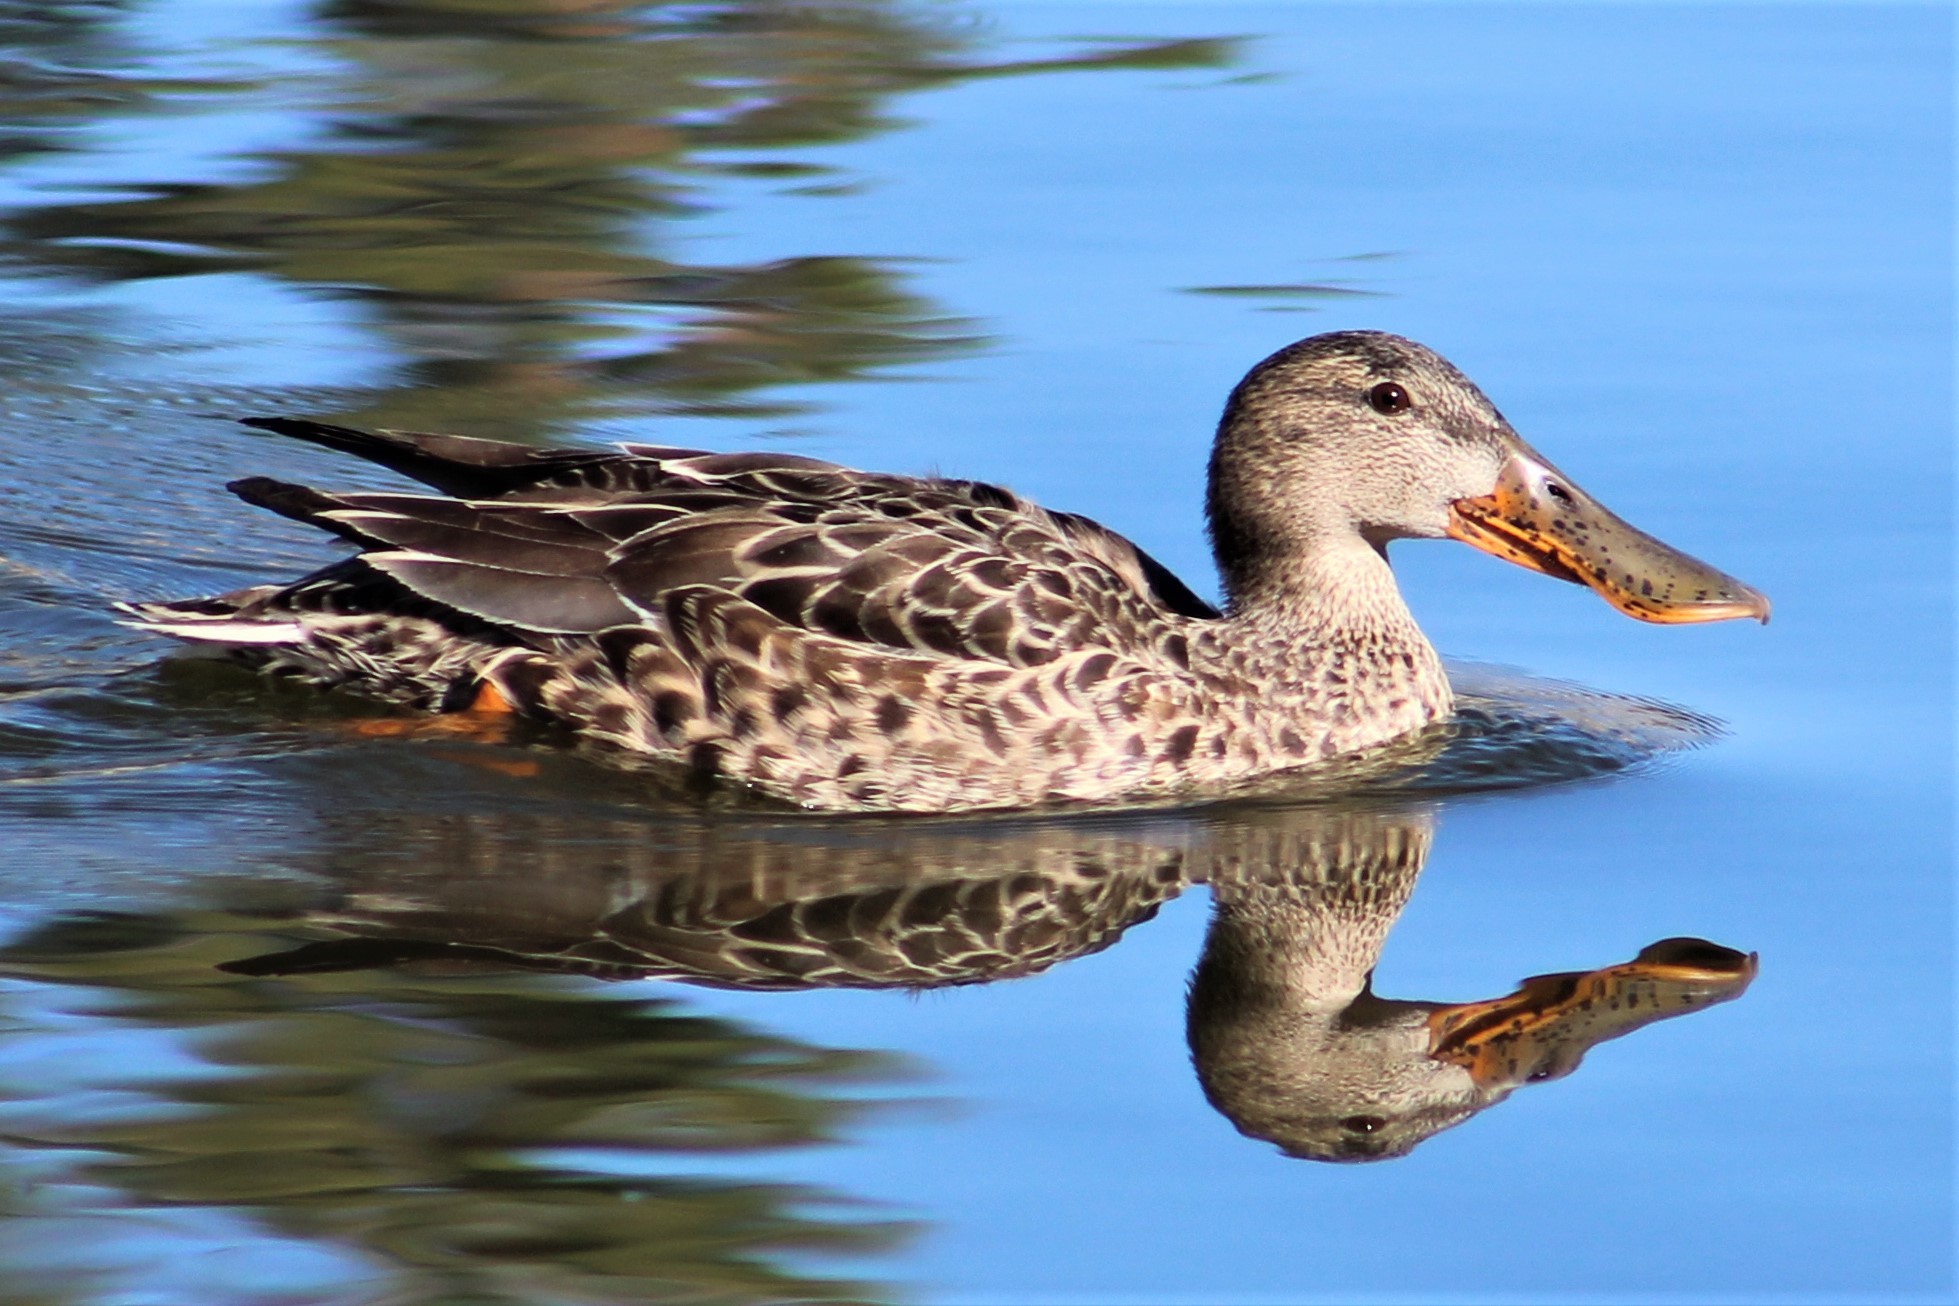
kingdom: Animalia
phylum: Chordata
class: Aves
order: Anseriformes
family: Anatidae
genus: Spatula
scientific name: Spatula clypeata
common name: Northern shoveler
